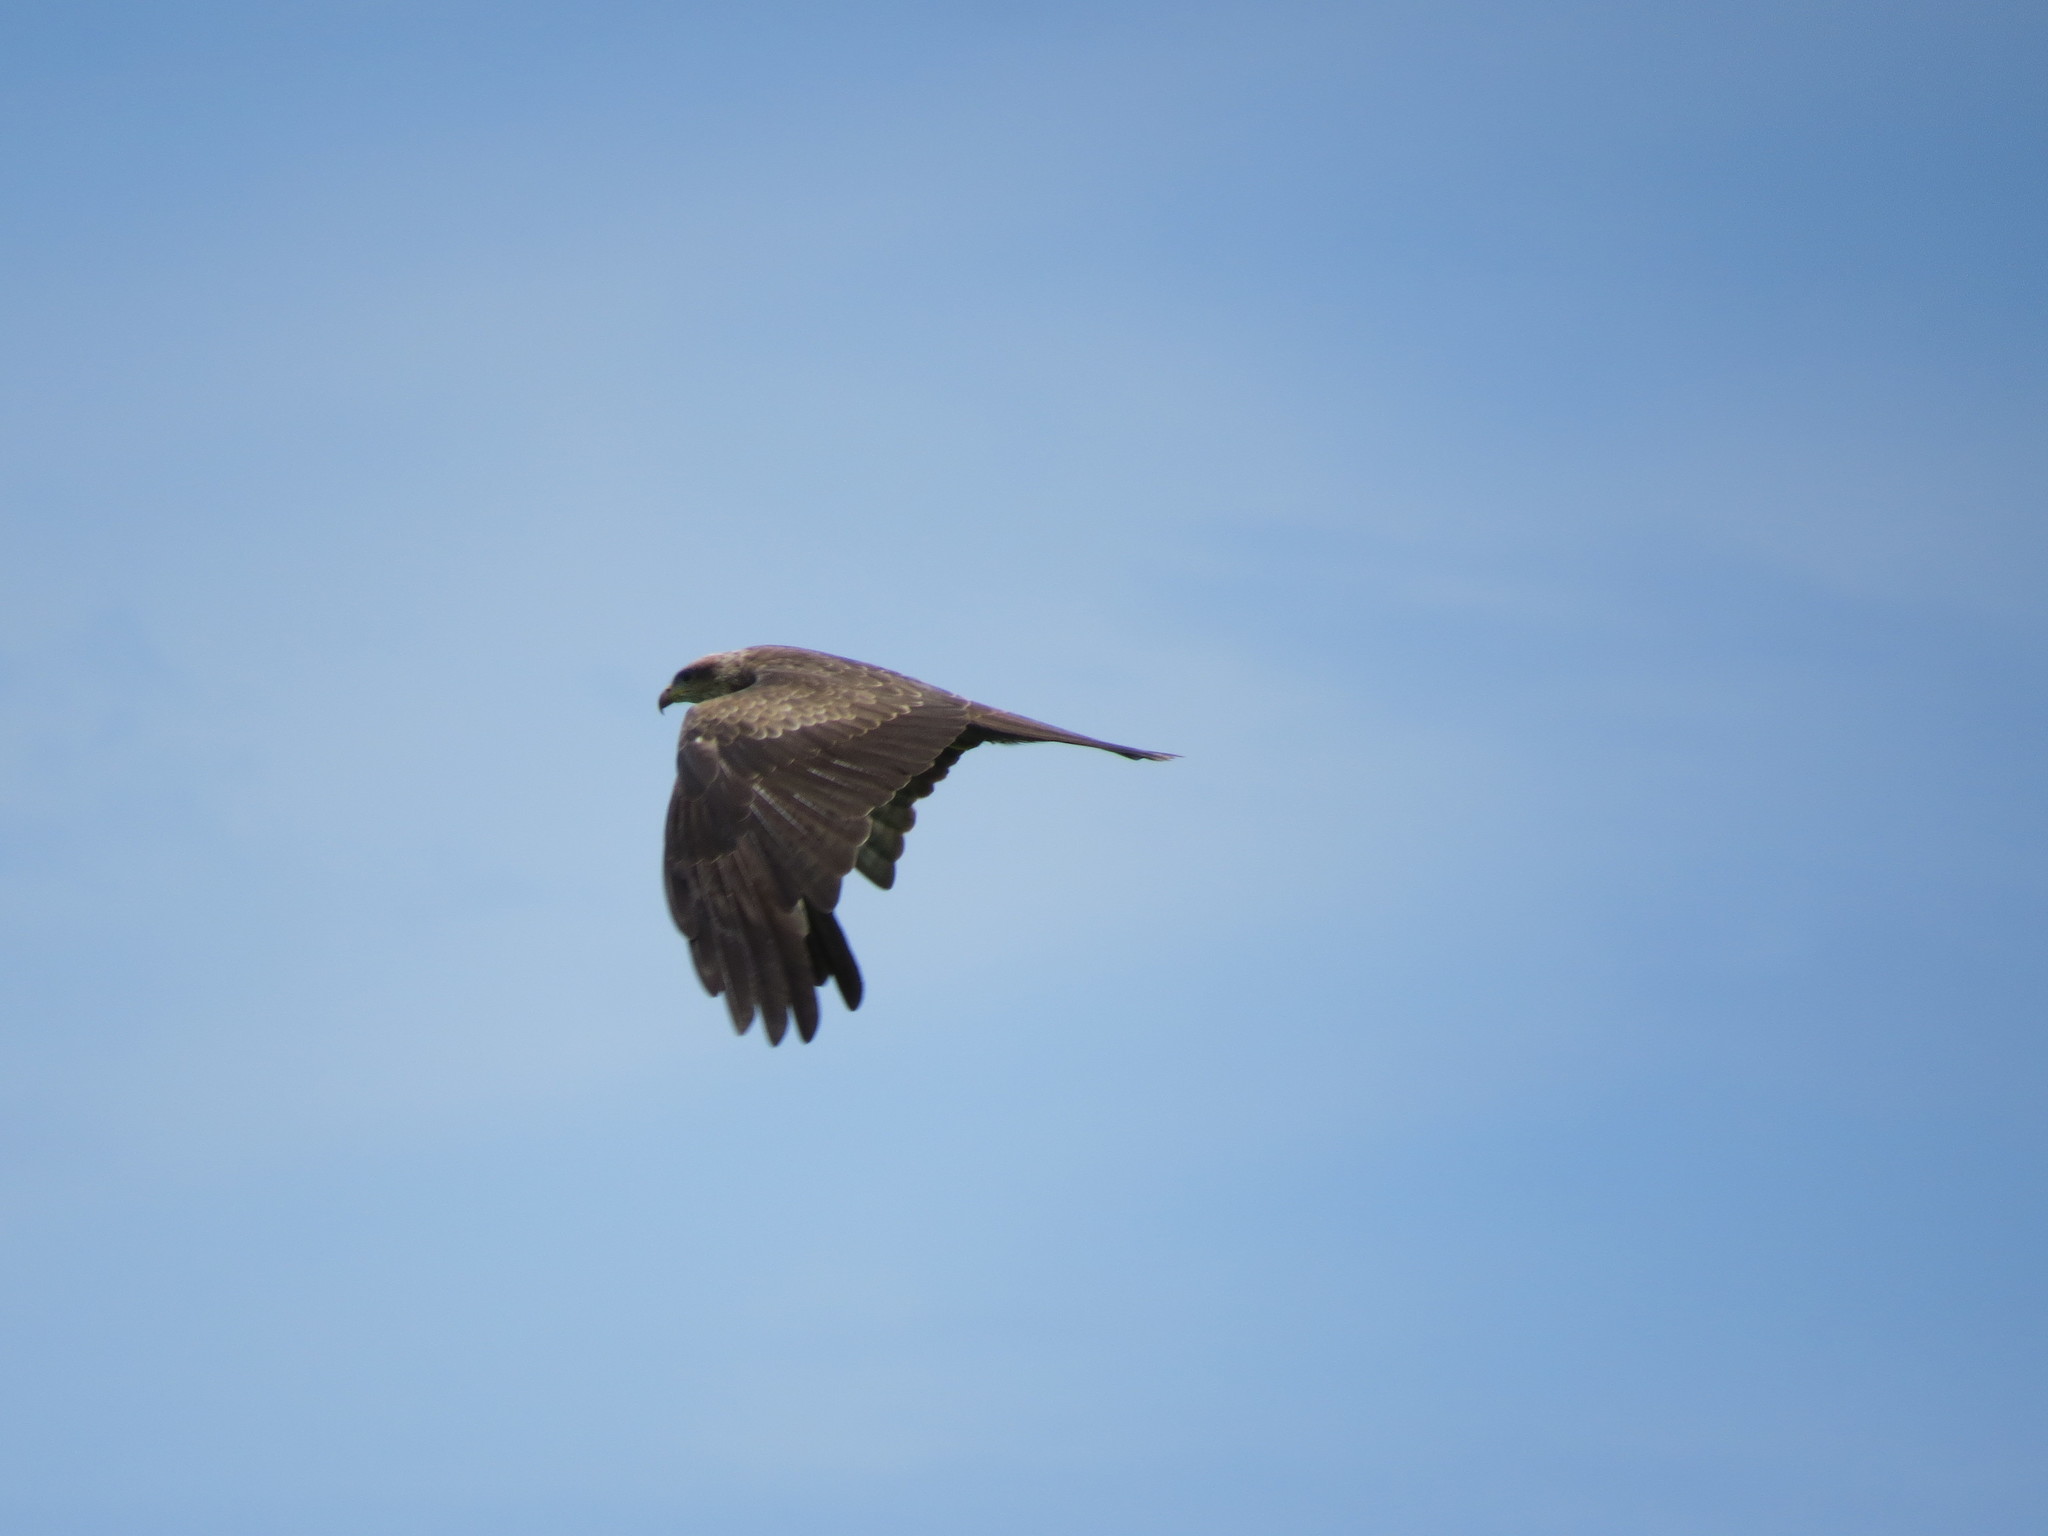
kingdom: Animalia
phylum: Chordata
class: Aves
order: Accipitriformes
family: Accipitridae
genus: Milvus
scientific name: Milvus migrans
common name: Black kite
